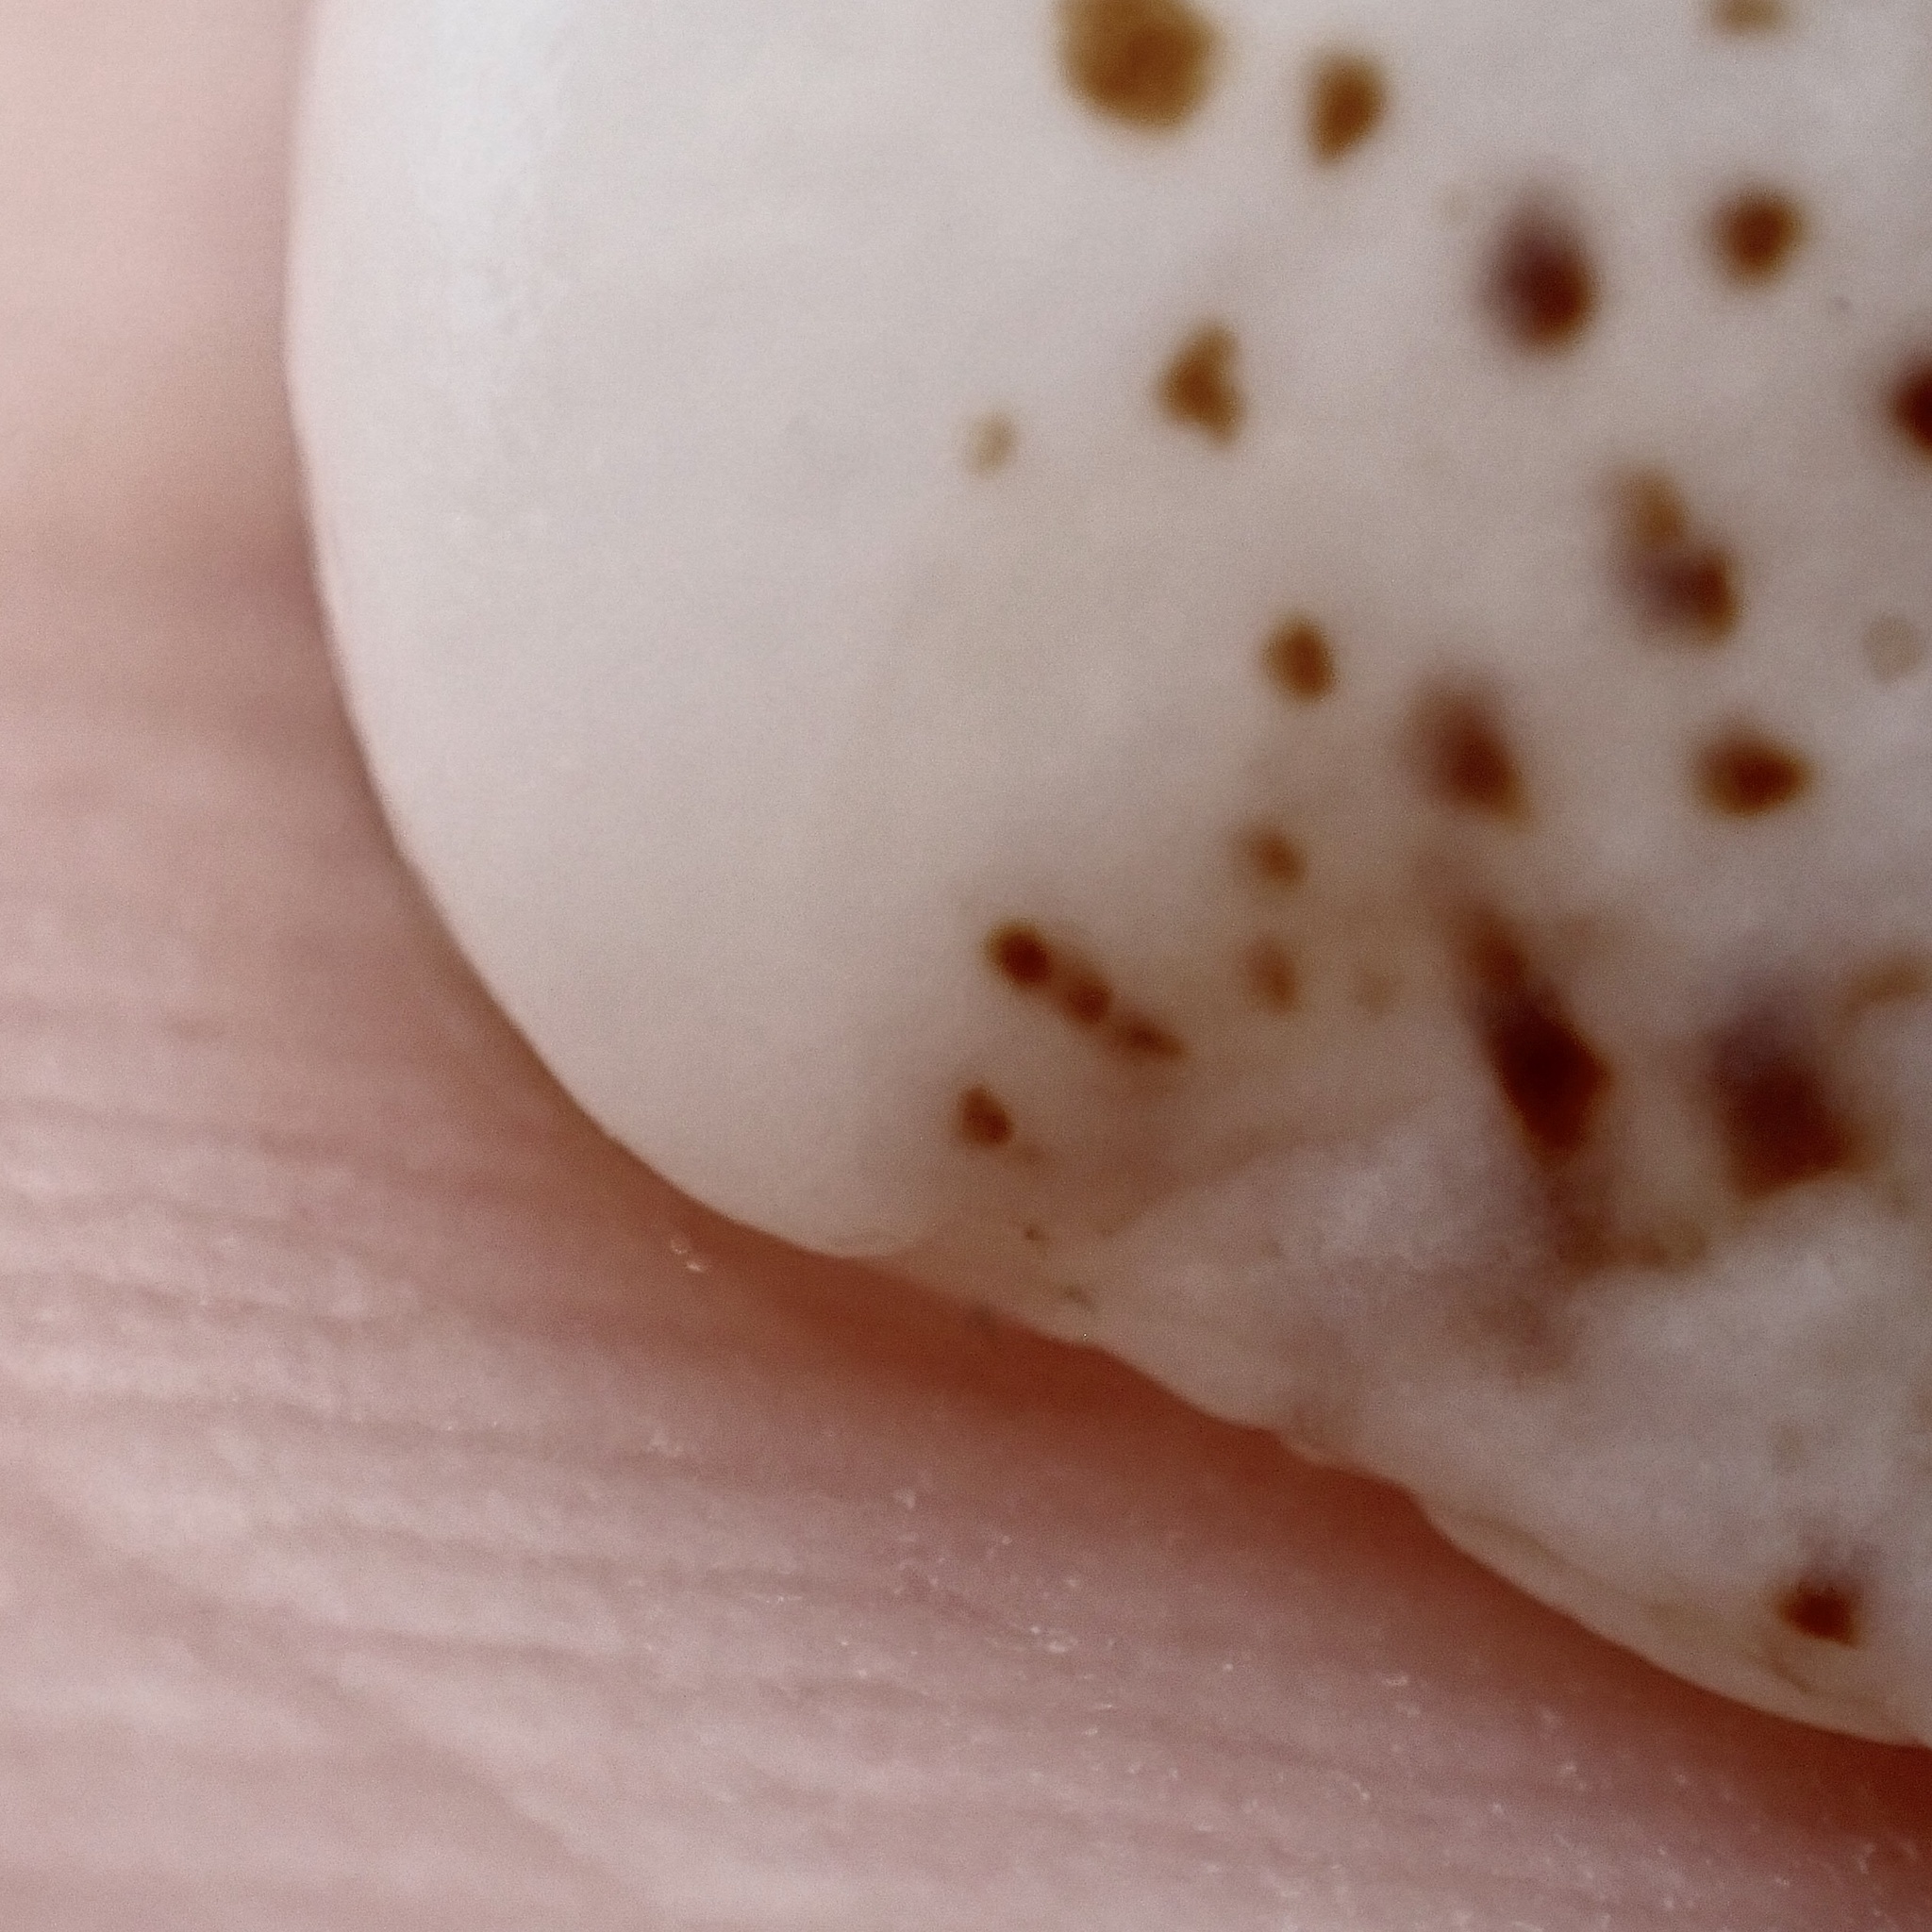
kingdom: Animalia
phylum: Mollusca
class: Gastropoda
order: Littorinimorpha
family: Calyptraeidae
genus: Crepidula
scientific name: Crepidula maculosa
